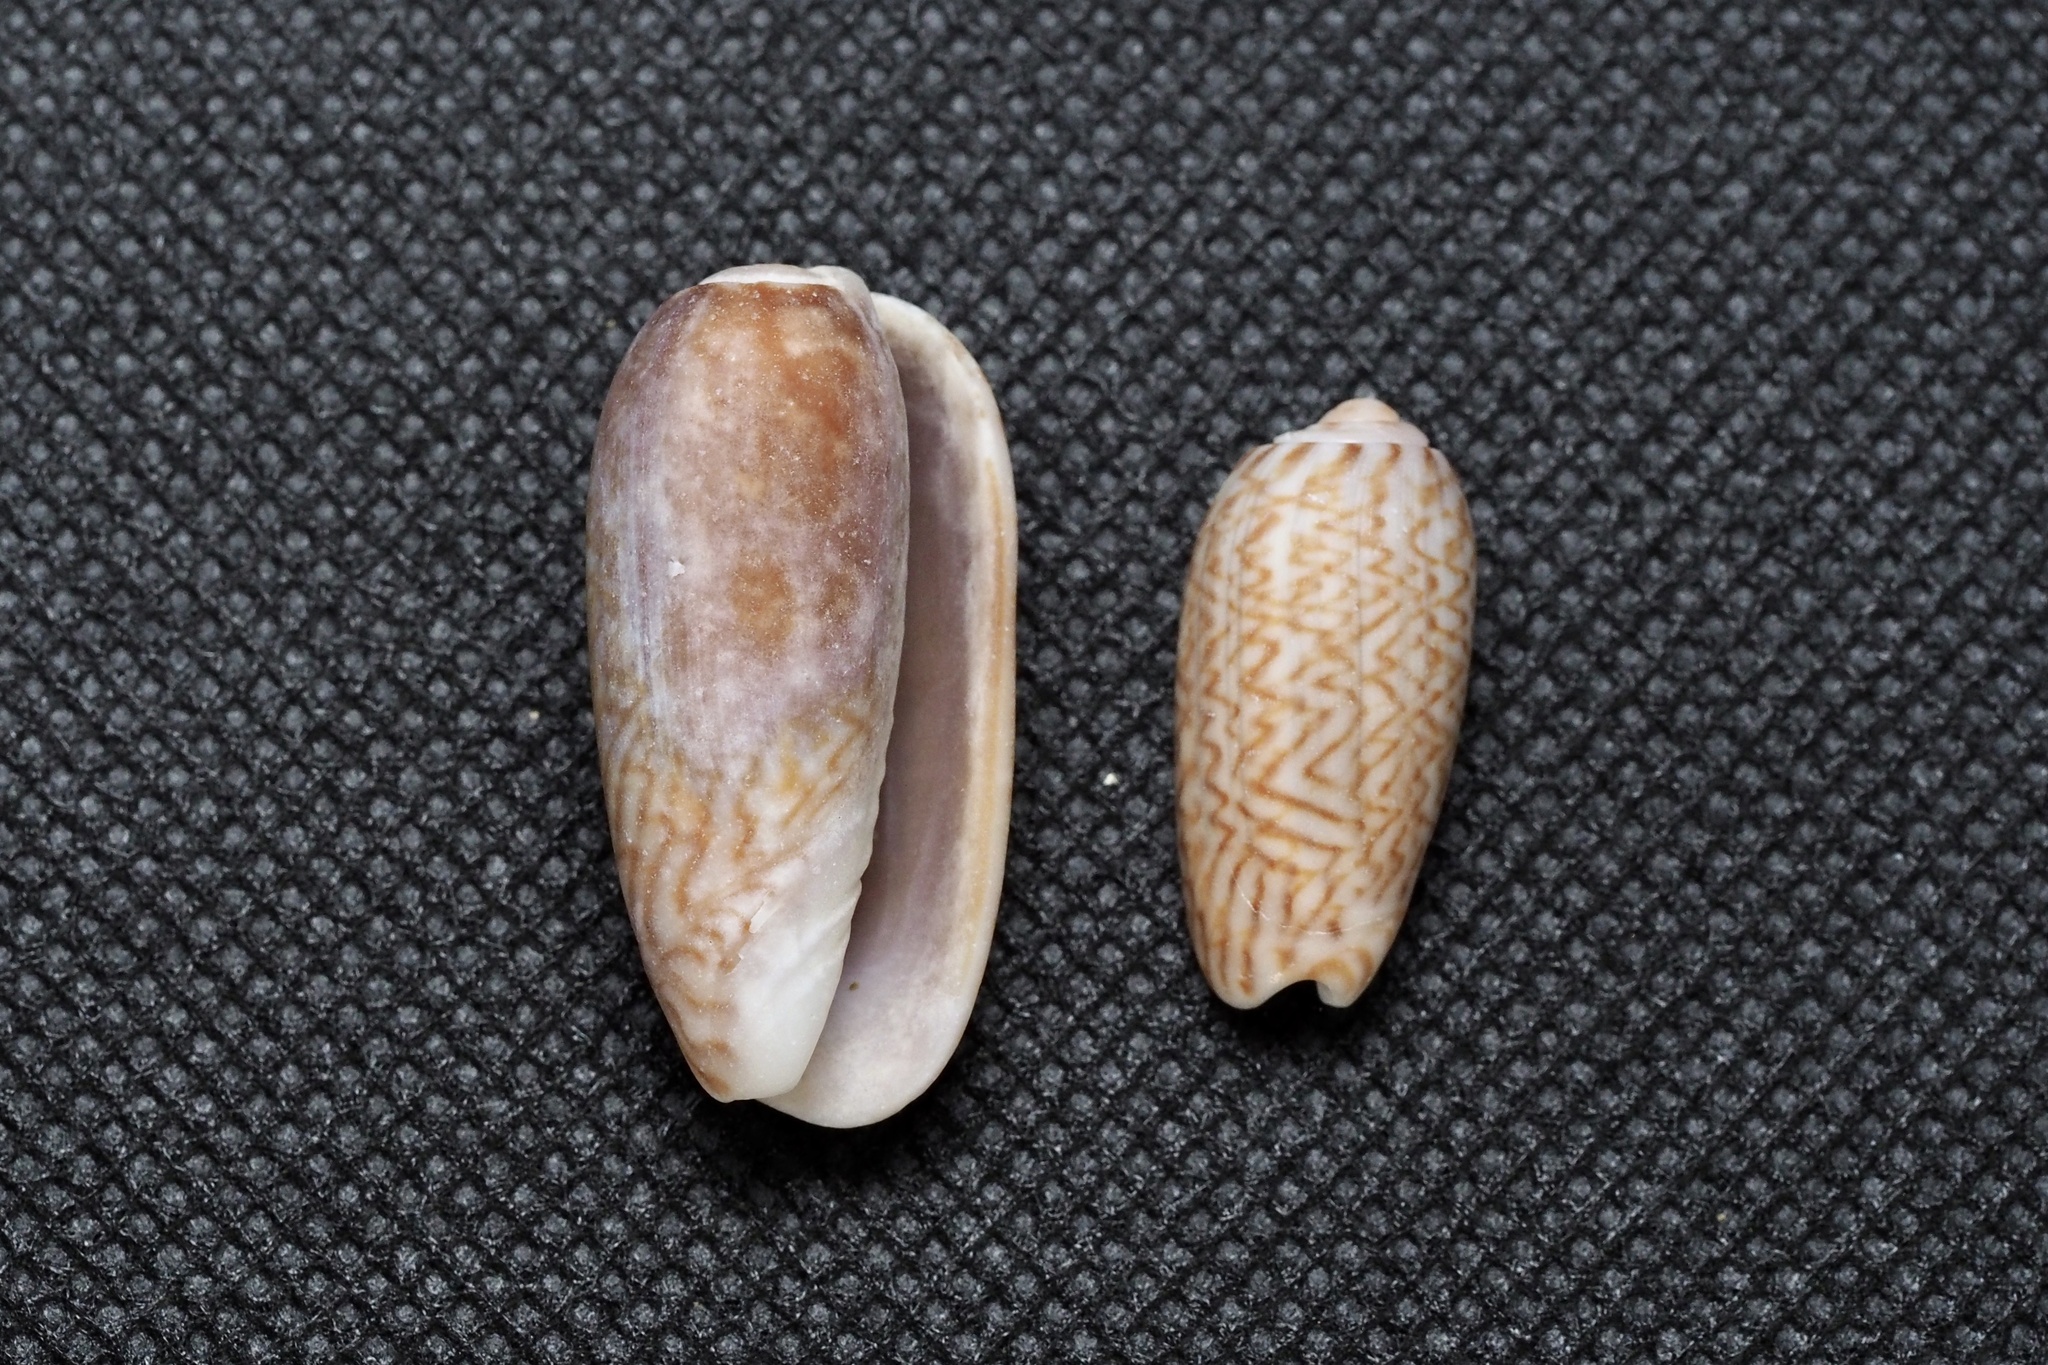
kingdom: Animalia
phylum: Mollusca
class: Gastropoda
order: Neogastropoda
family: Olividae
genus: Oliva
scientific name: Oliva mustelina
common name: Weasel olive
